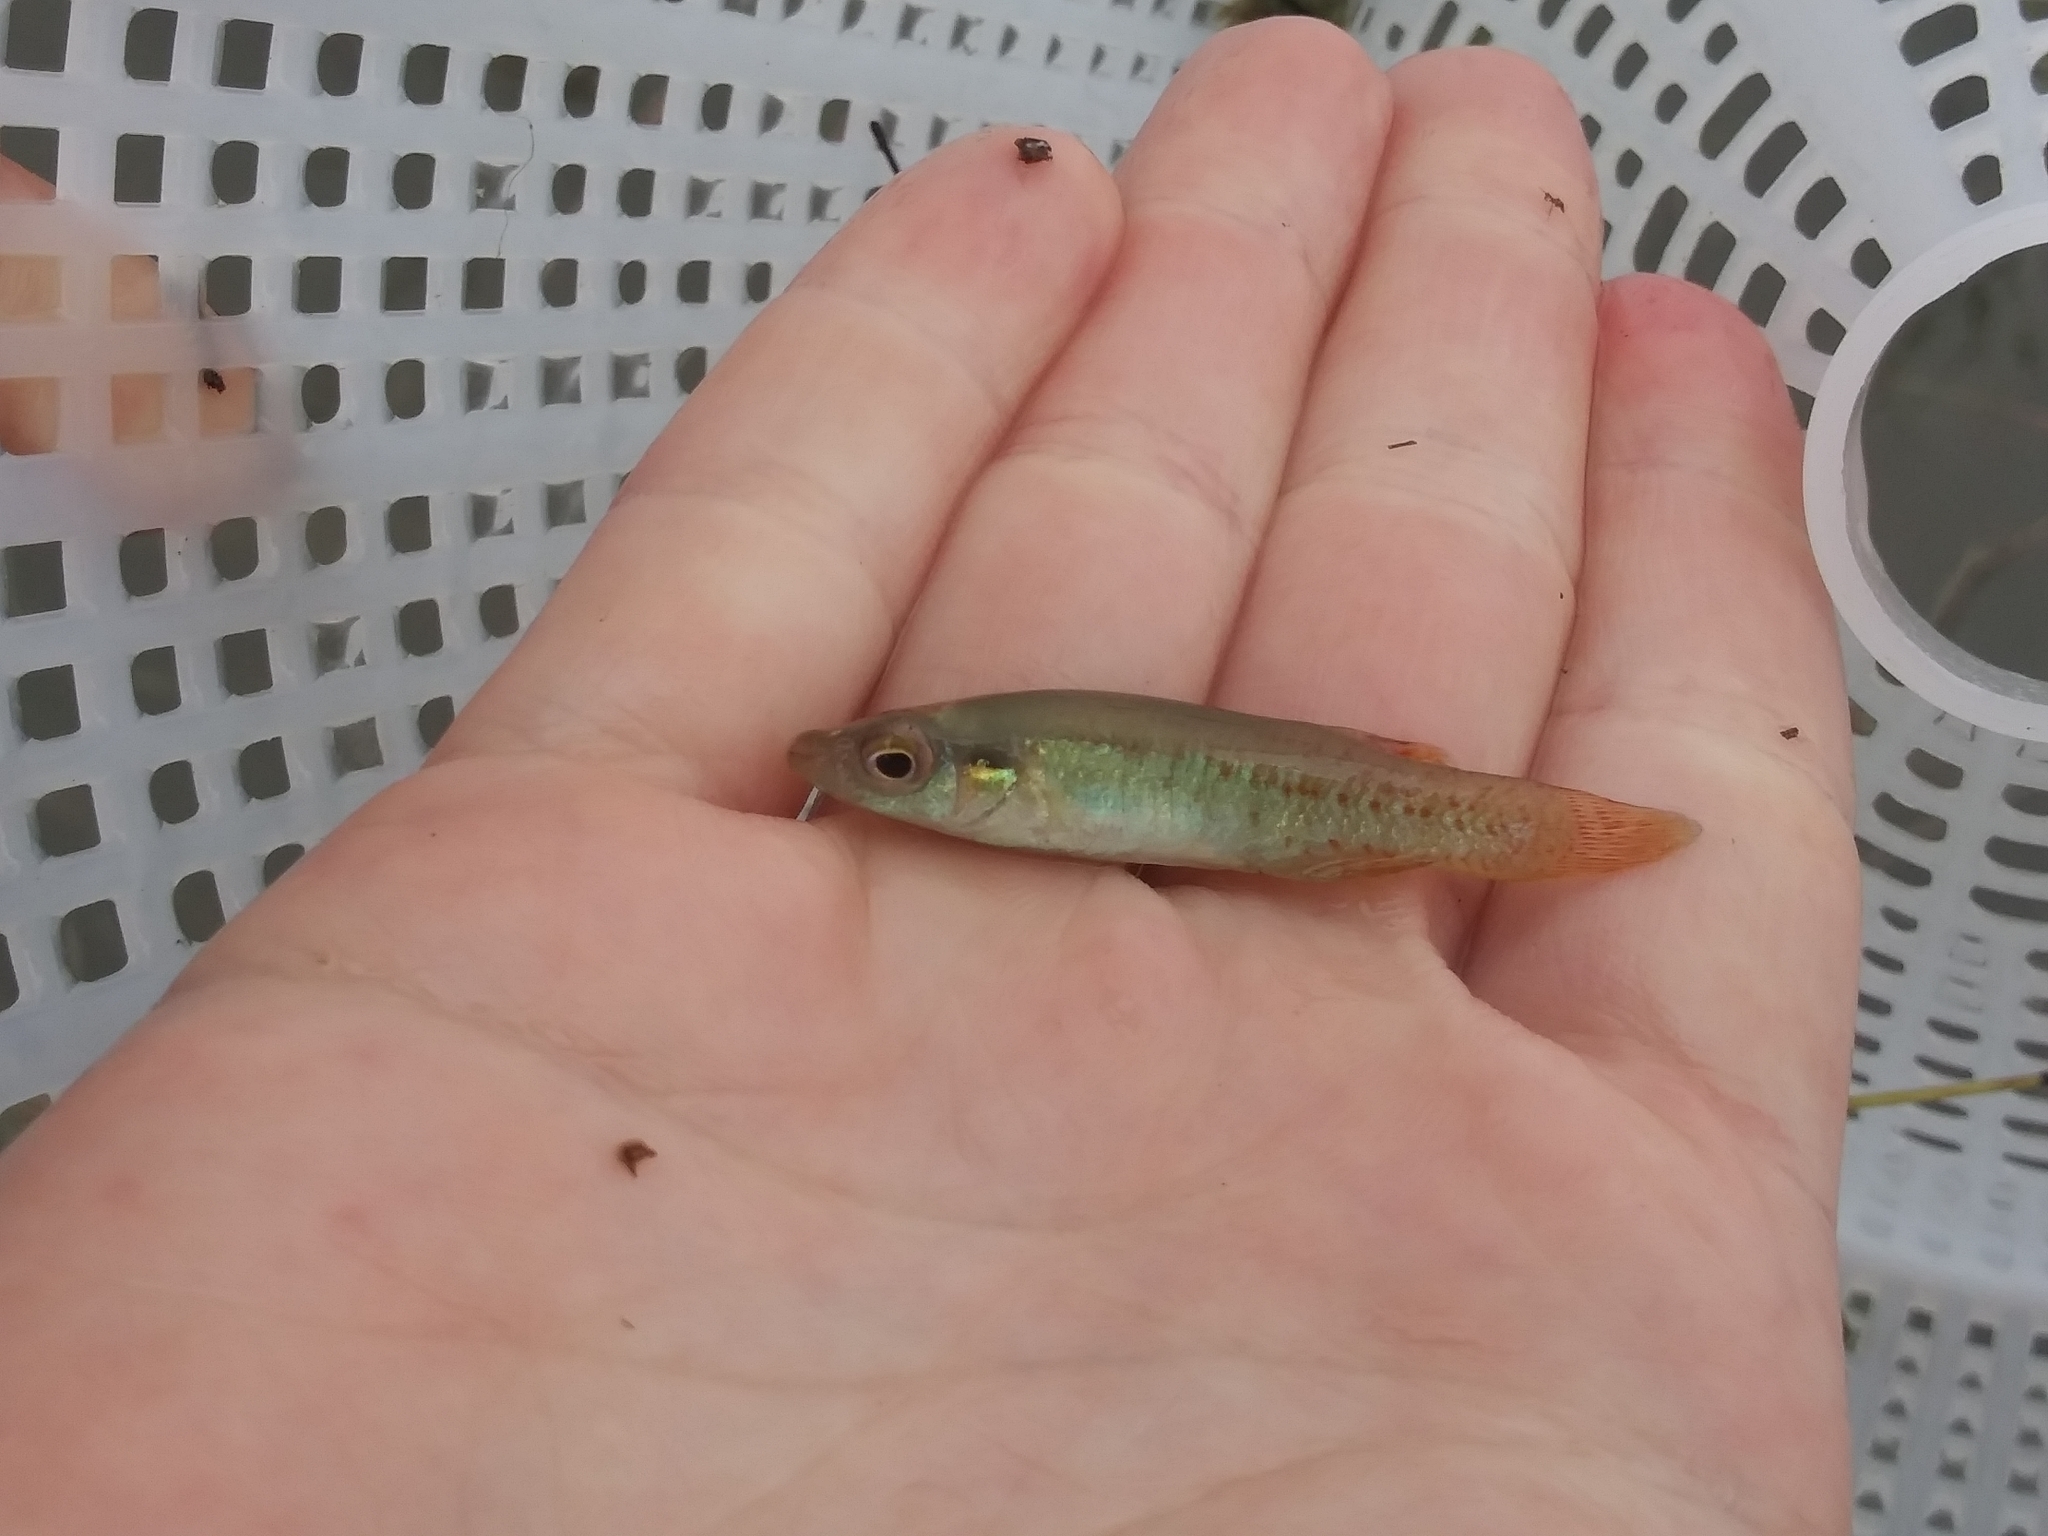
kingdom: Animalia
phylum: Chordata
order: Cyprinodontiformes
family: Fundulidae
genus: Fundulus
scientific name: Fundulus chrysotus
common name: Golden topminnow
